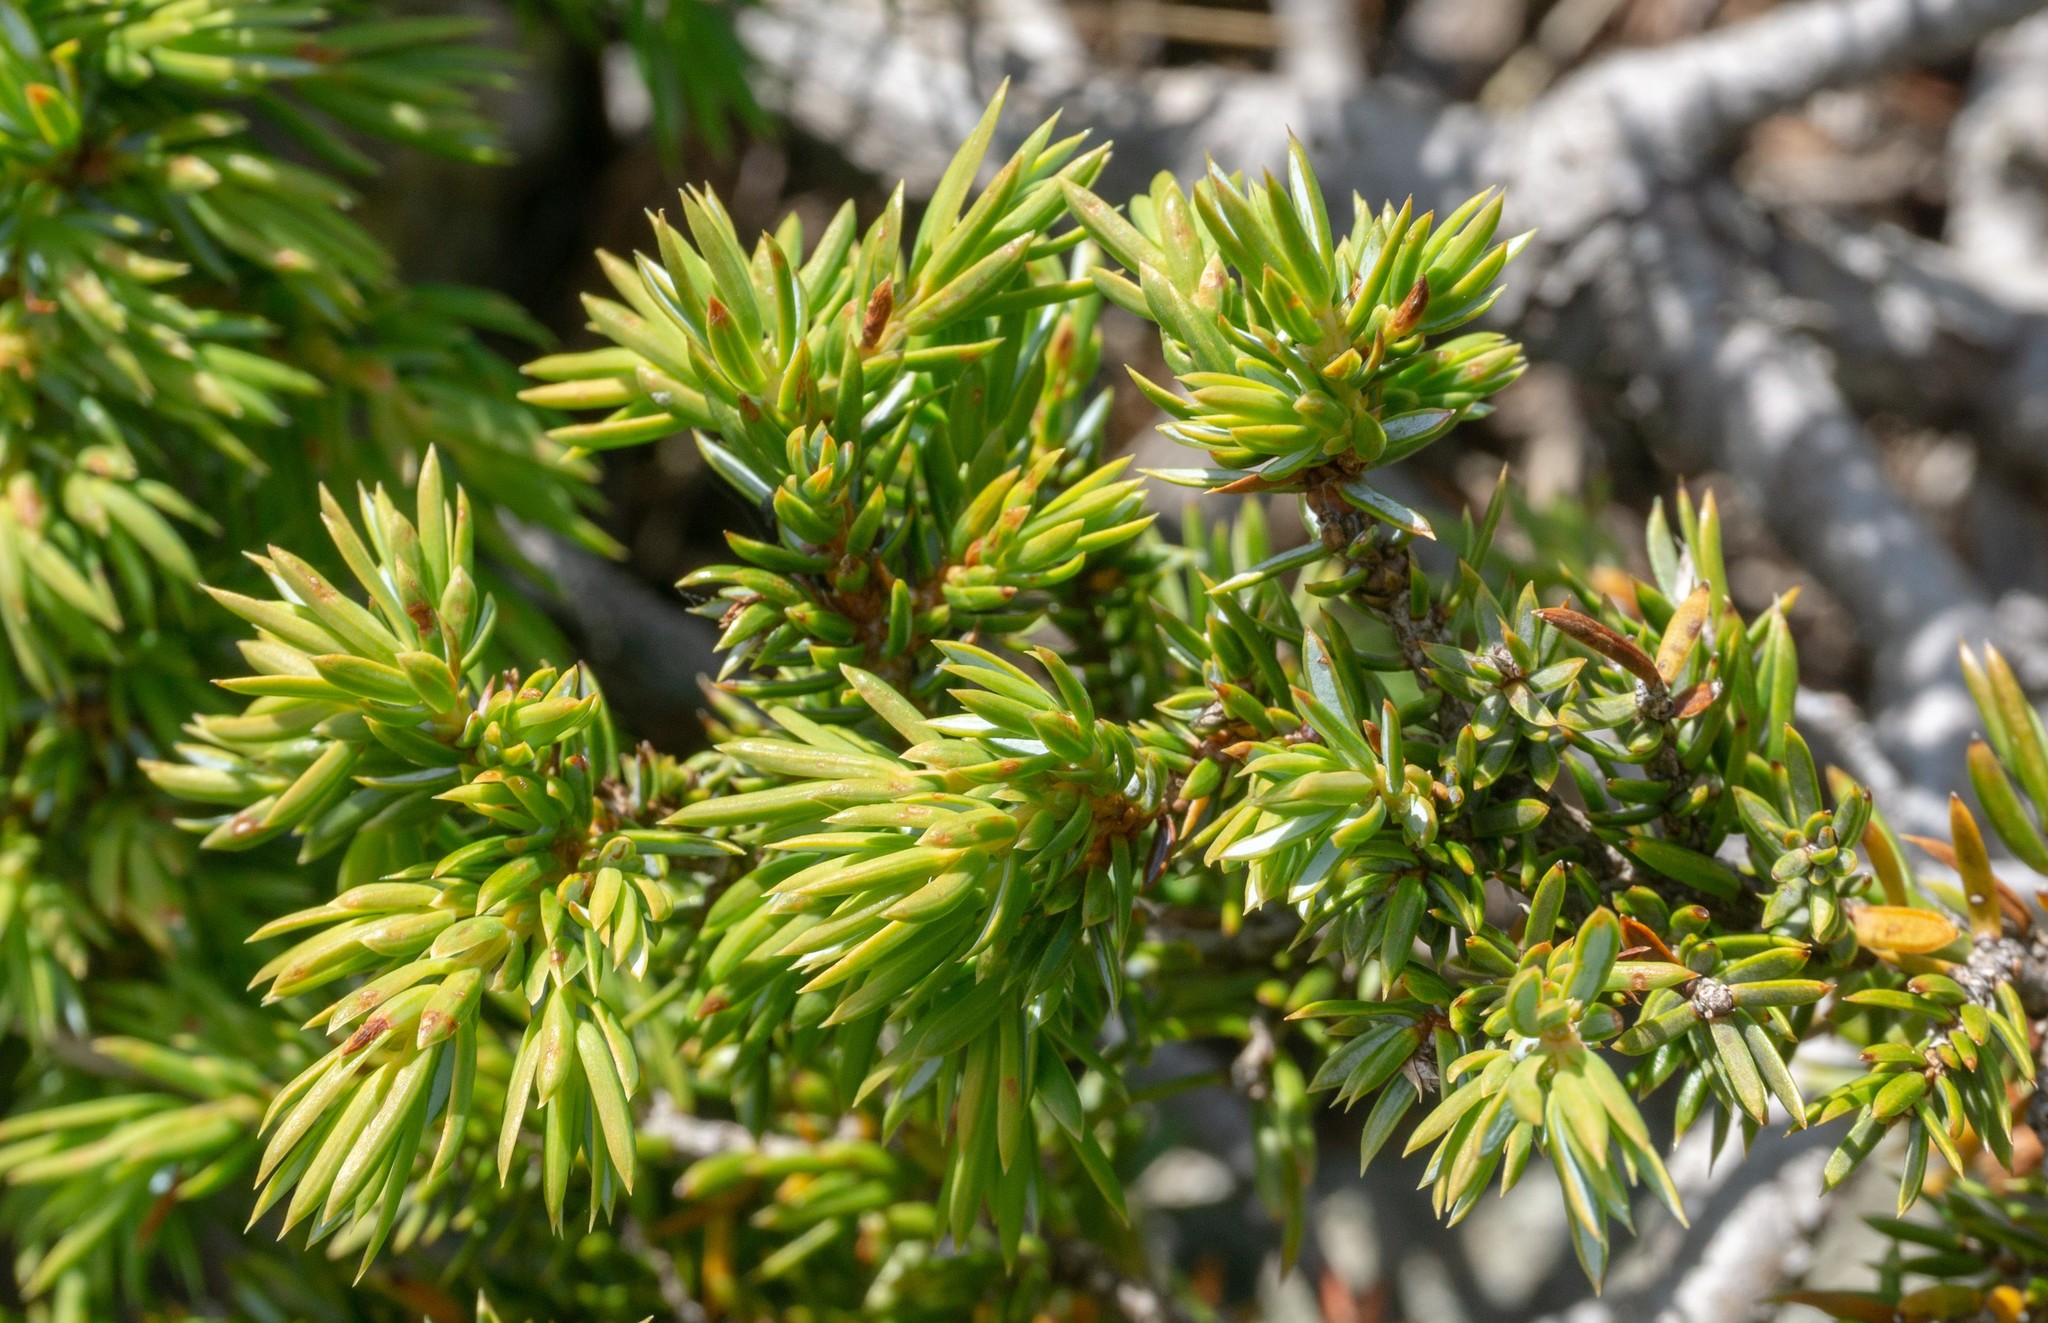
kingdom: Plantae
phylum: Tracheophyta
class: Pinopsida
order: Pinales
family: Cupressaceae
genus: Juniperus
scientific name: Juniperus communis
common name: Common juniper
